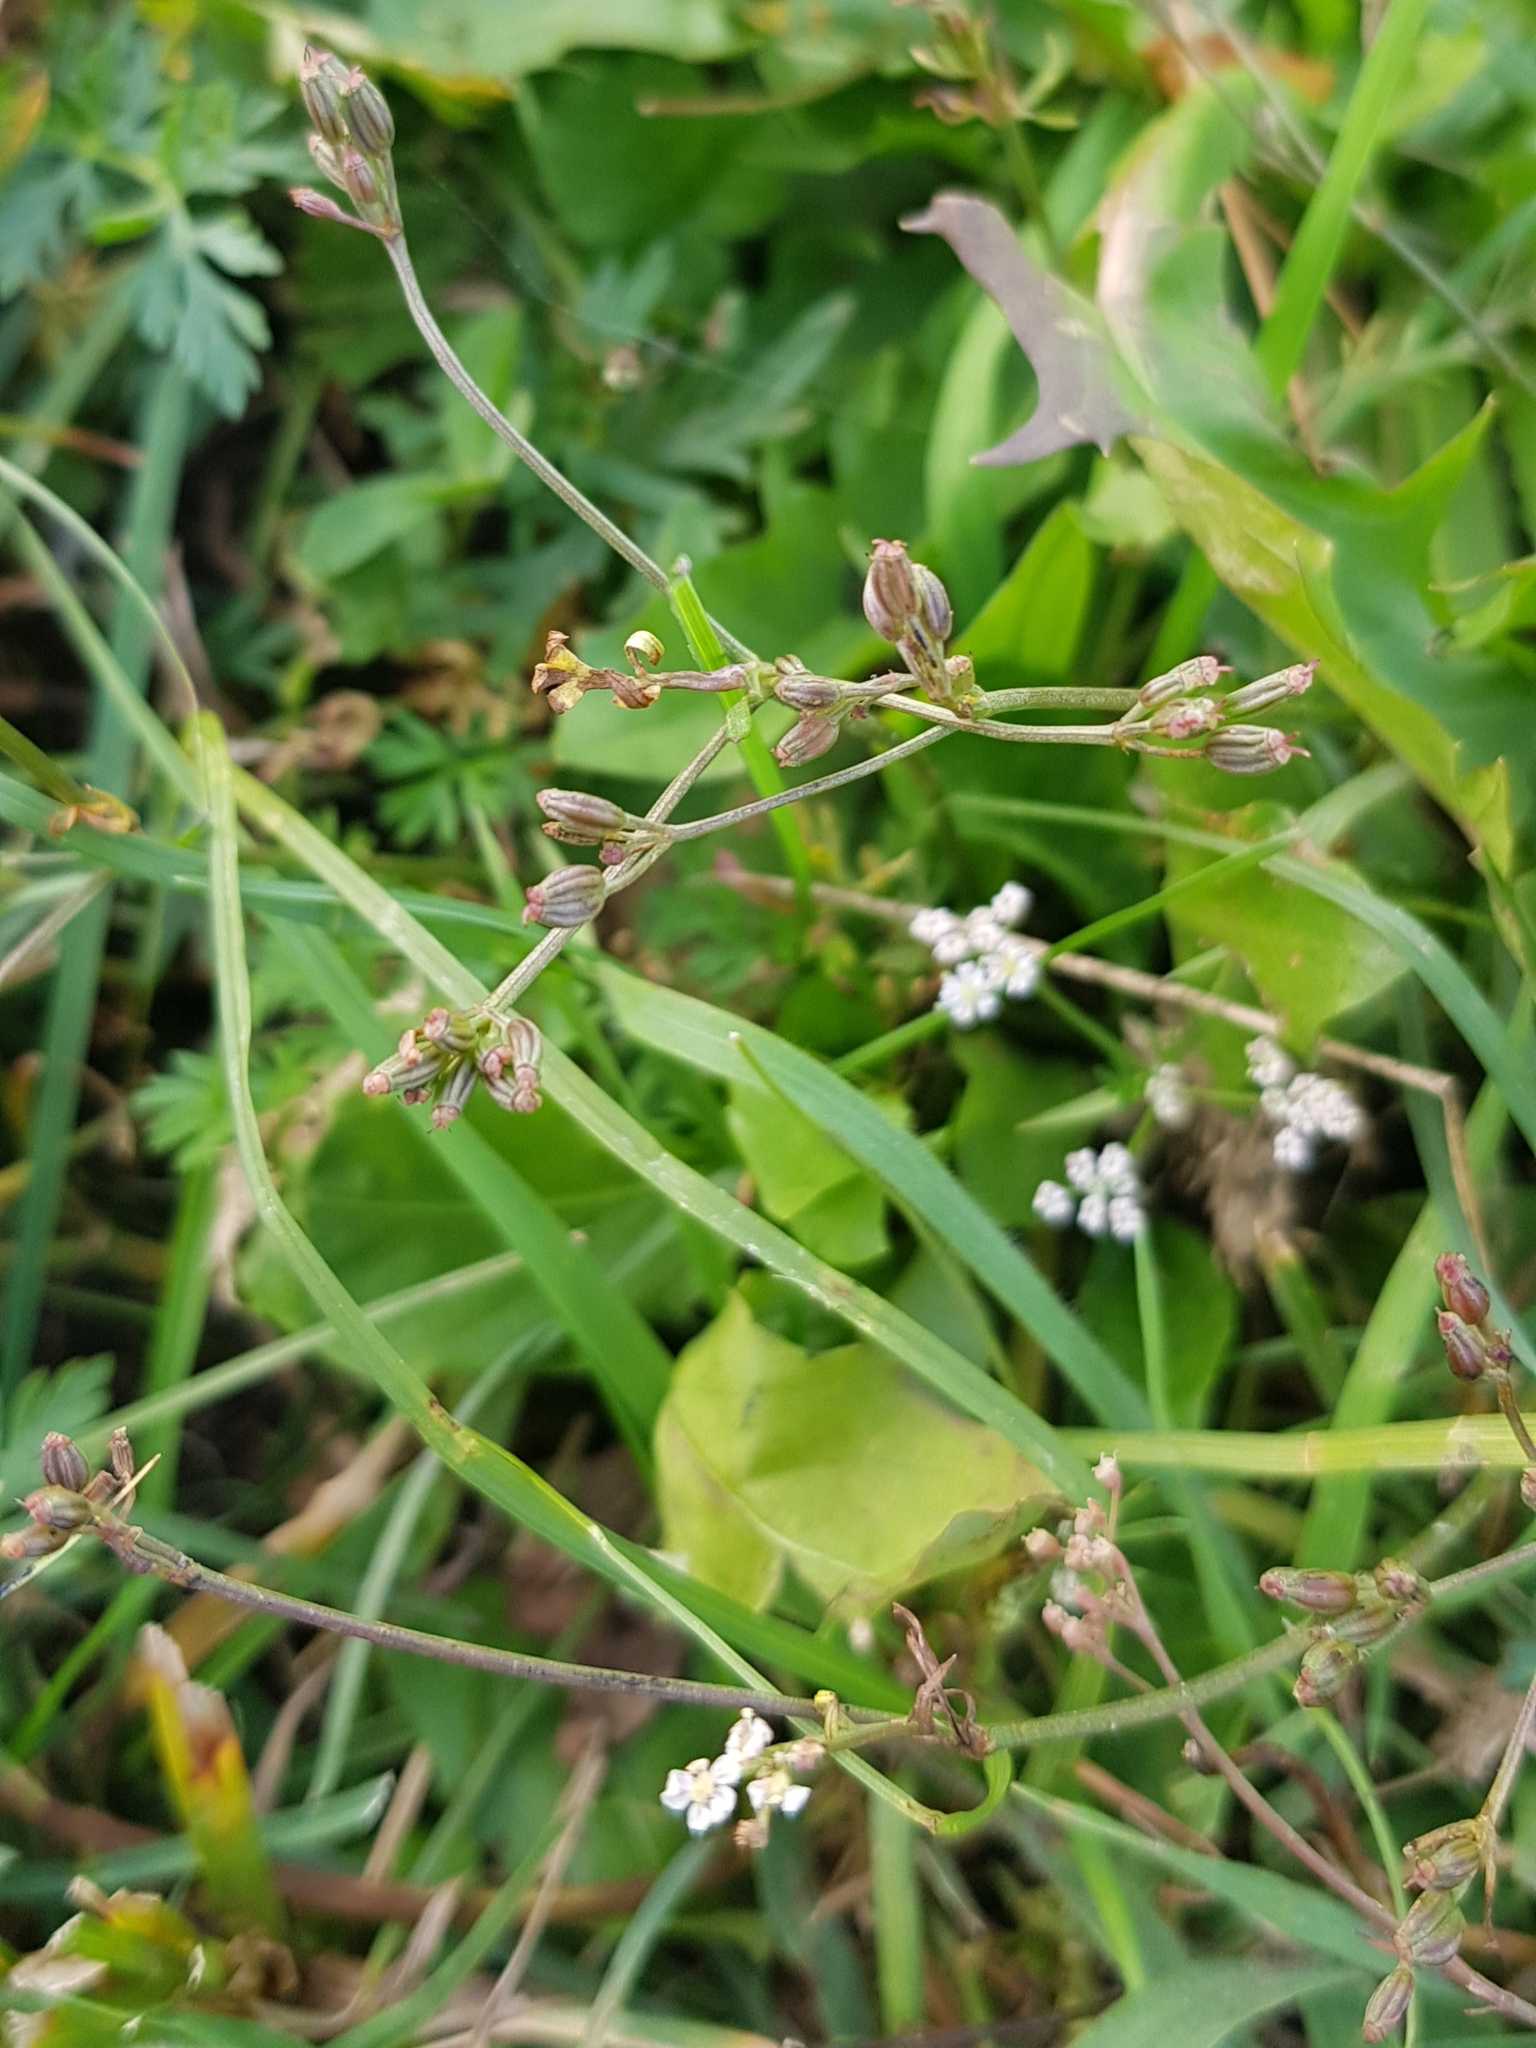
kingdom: Plantae
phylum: Tracheophyta
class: Magnoliopsida
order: Apiales
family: Apiaceae
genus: Carum
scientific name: Carum carvi
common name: Caraway
